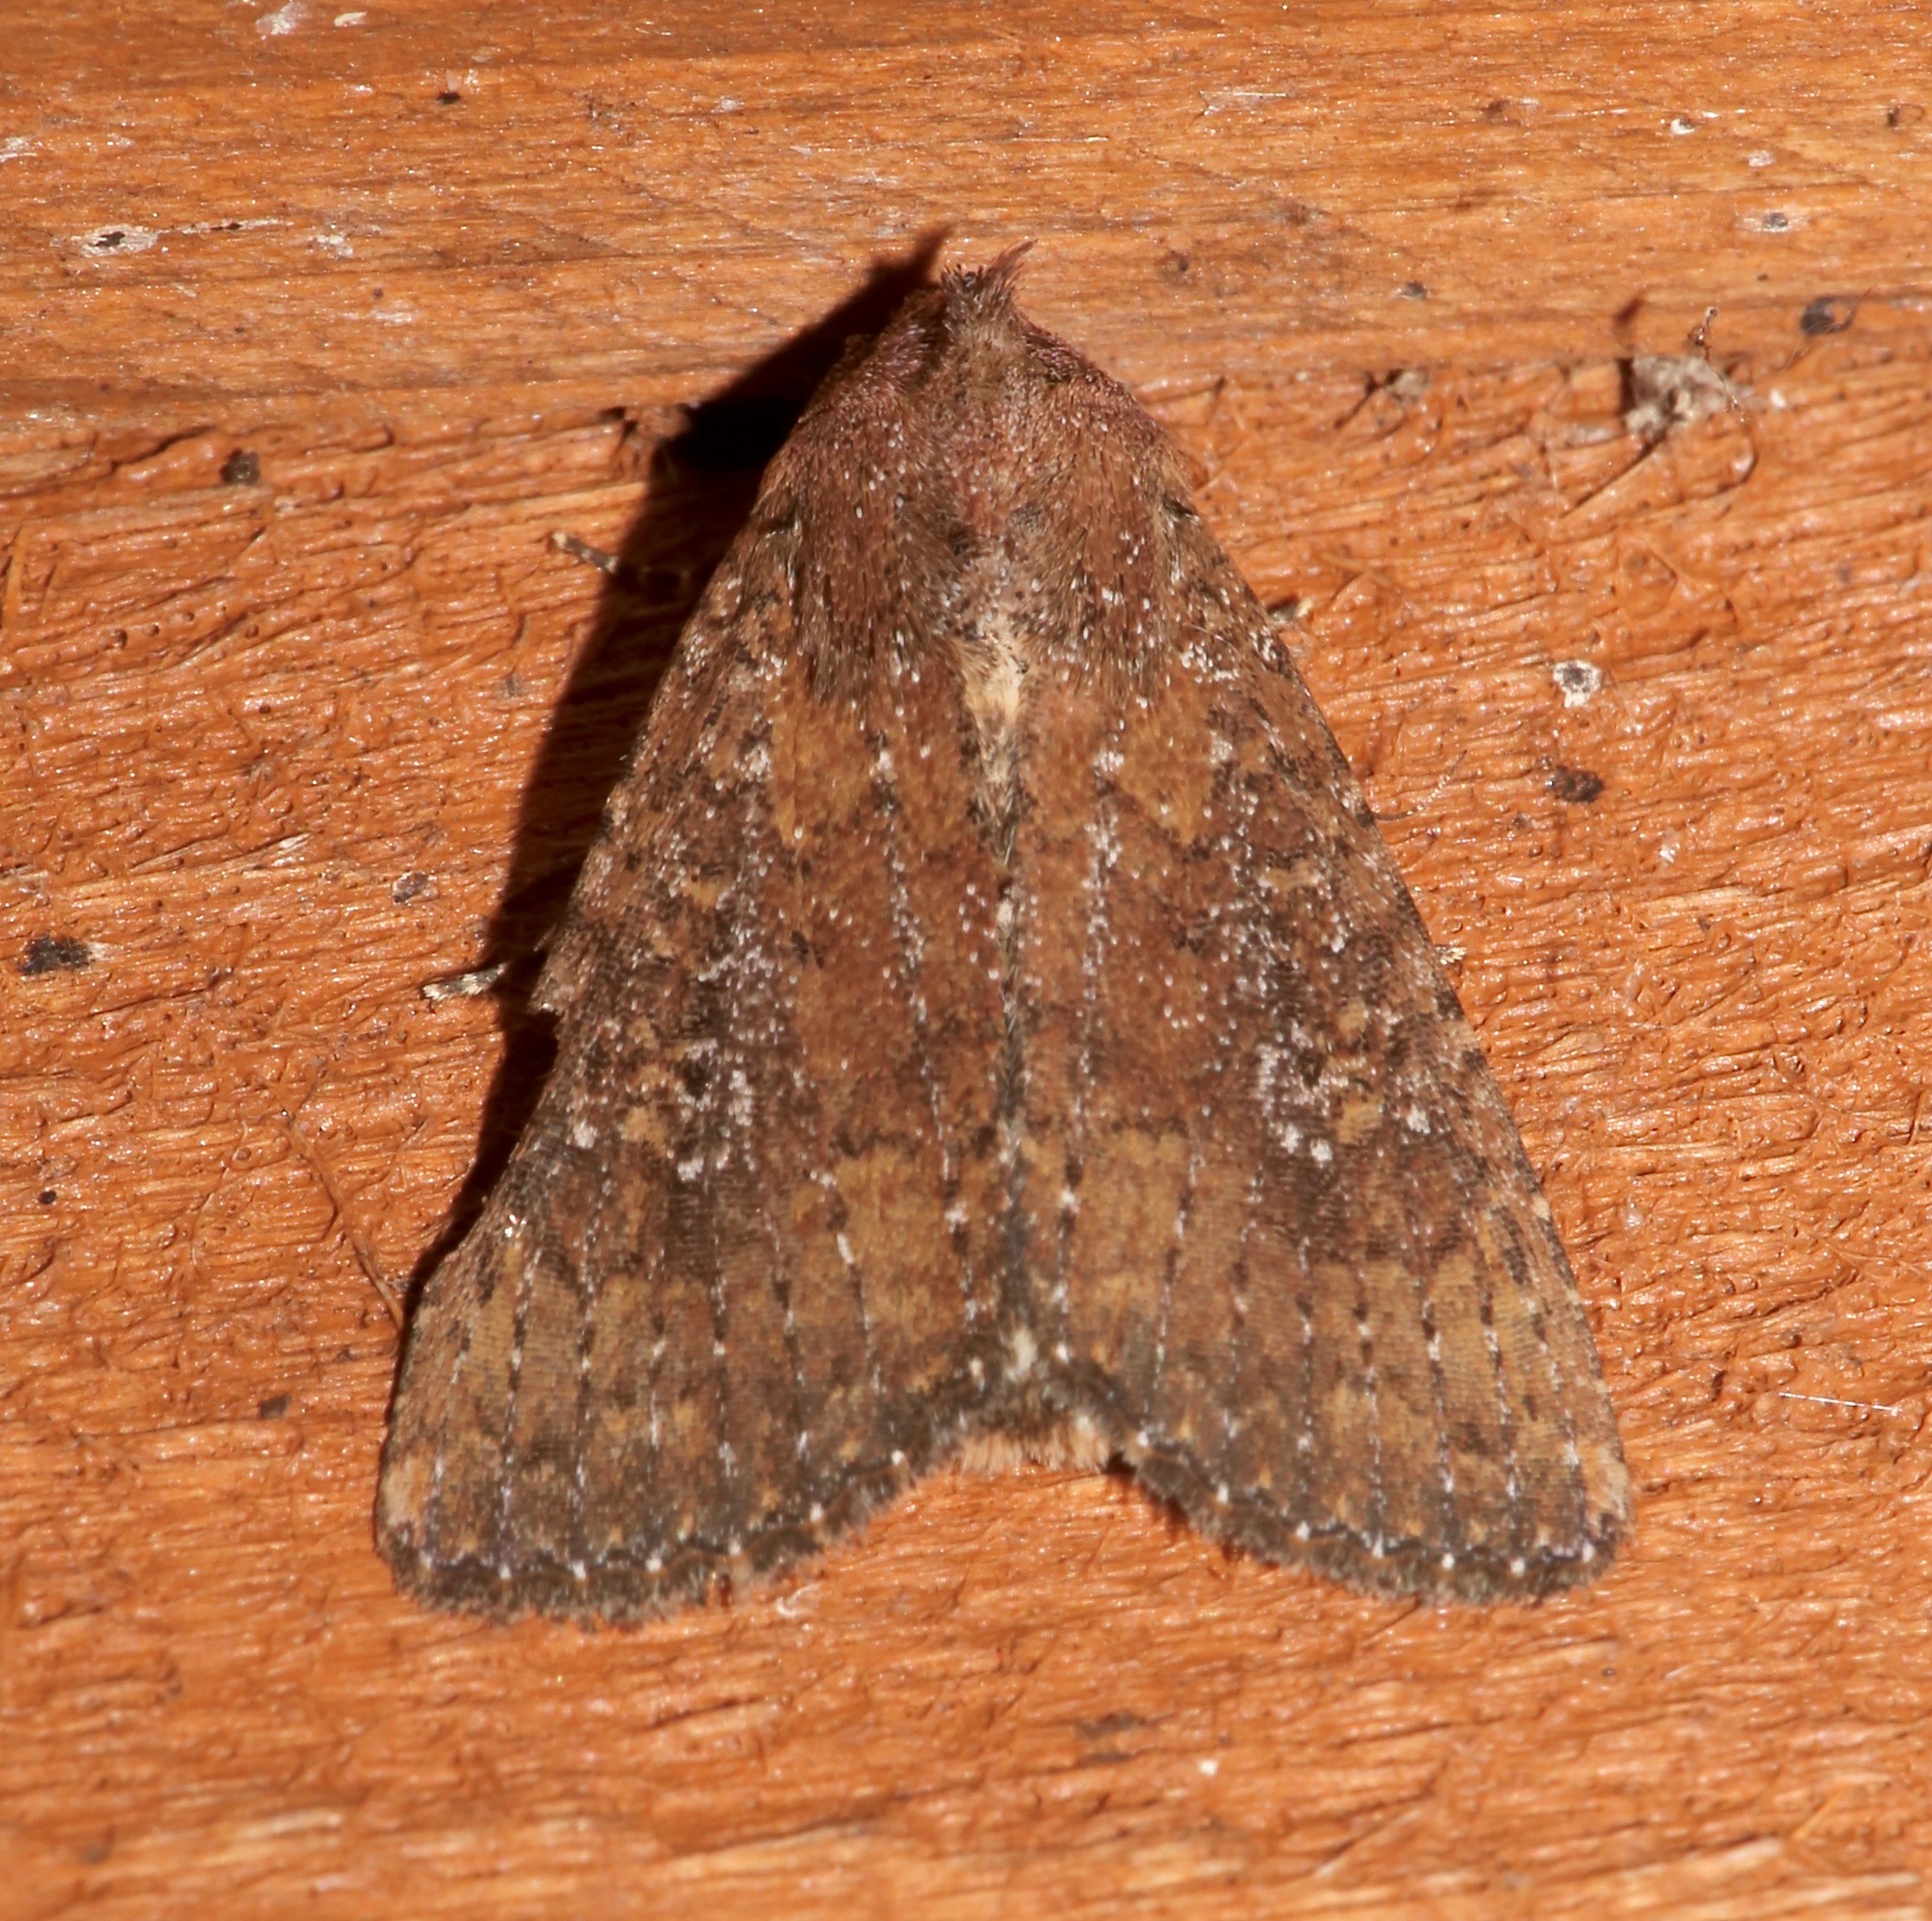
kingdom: Animalia
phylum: Arthropoda
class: Insecta
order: Lepidoptera
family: Noctuidae
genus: Condica
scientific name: Condica sutor
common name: Cobbler moth
